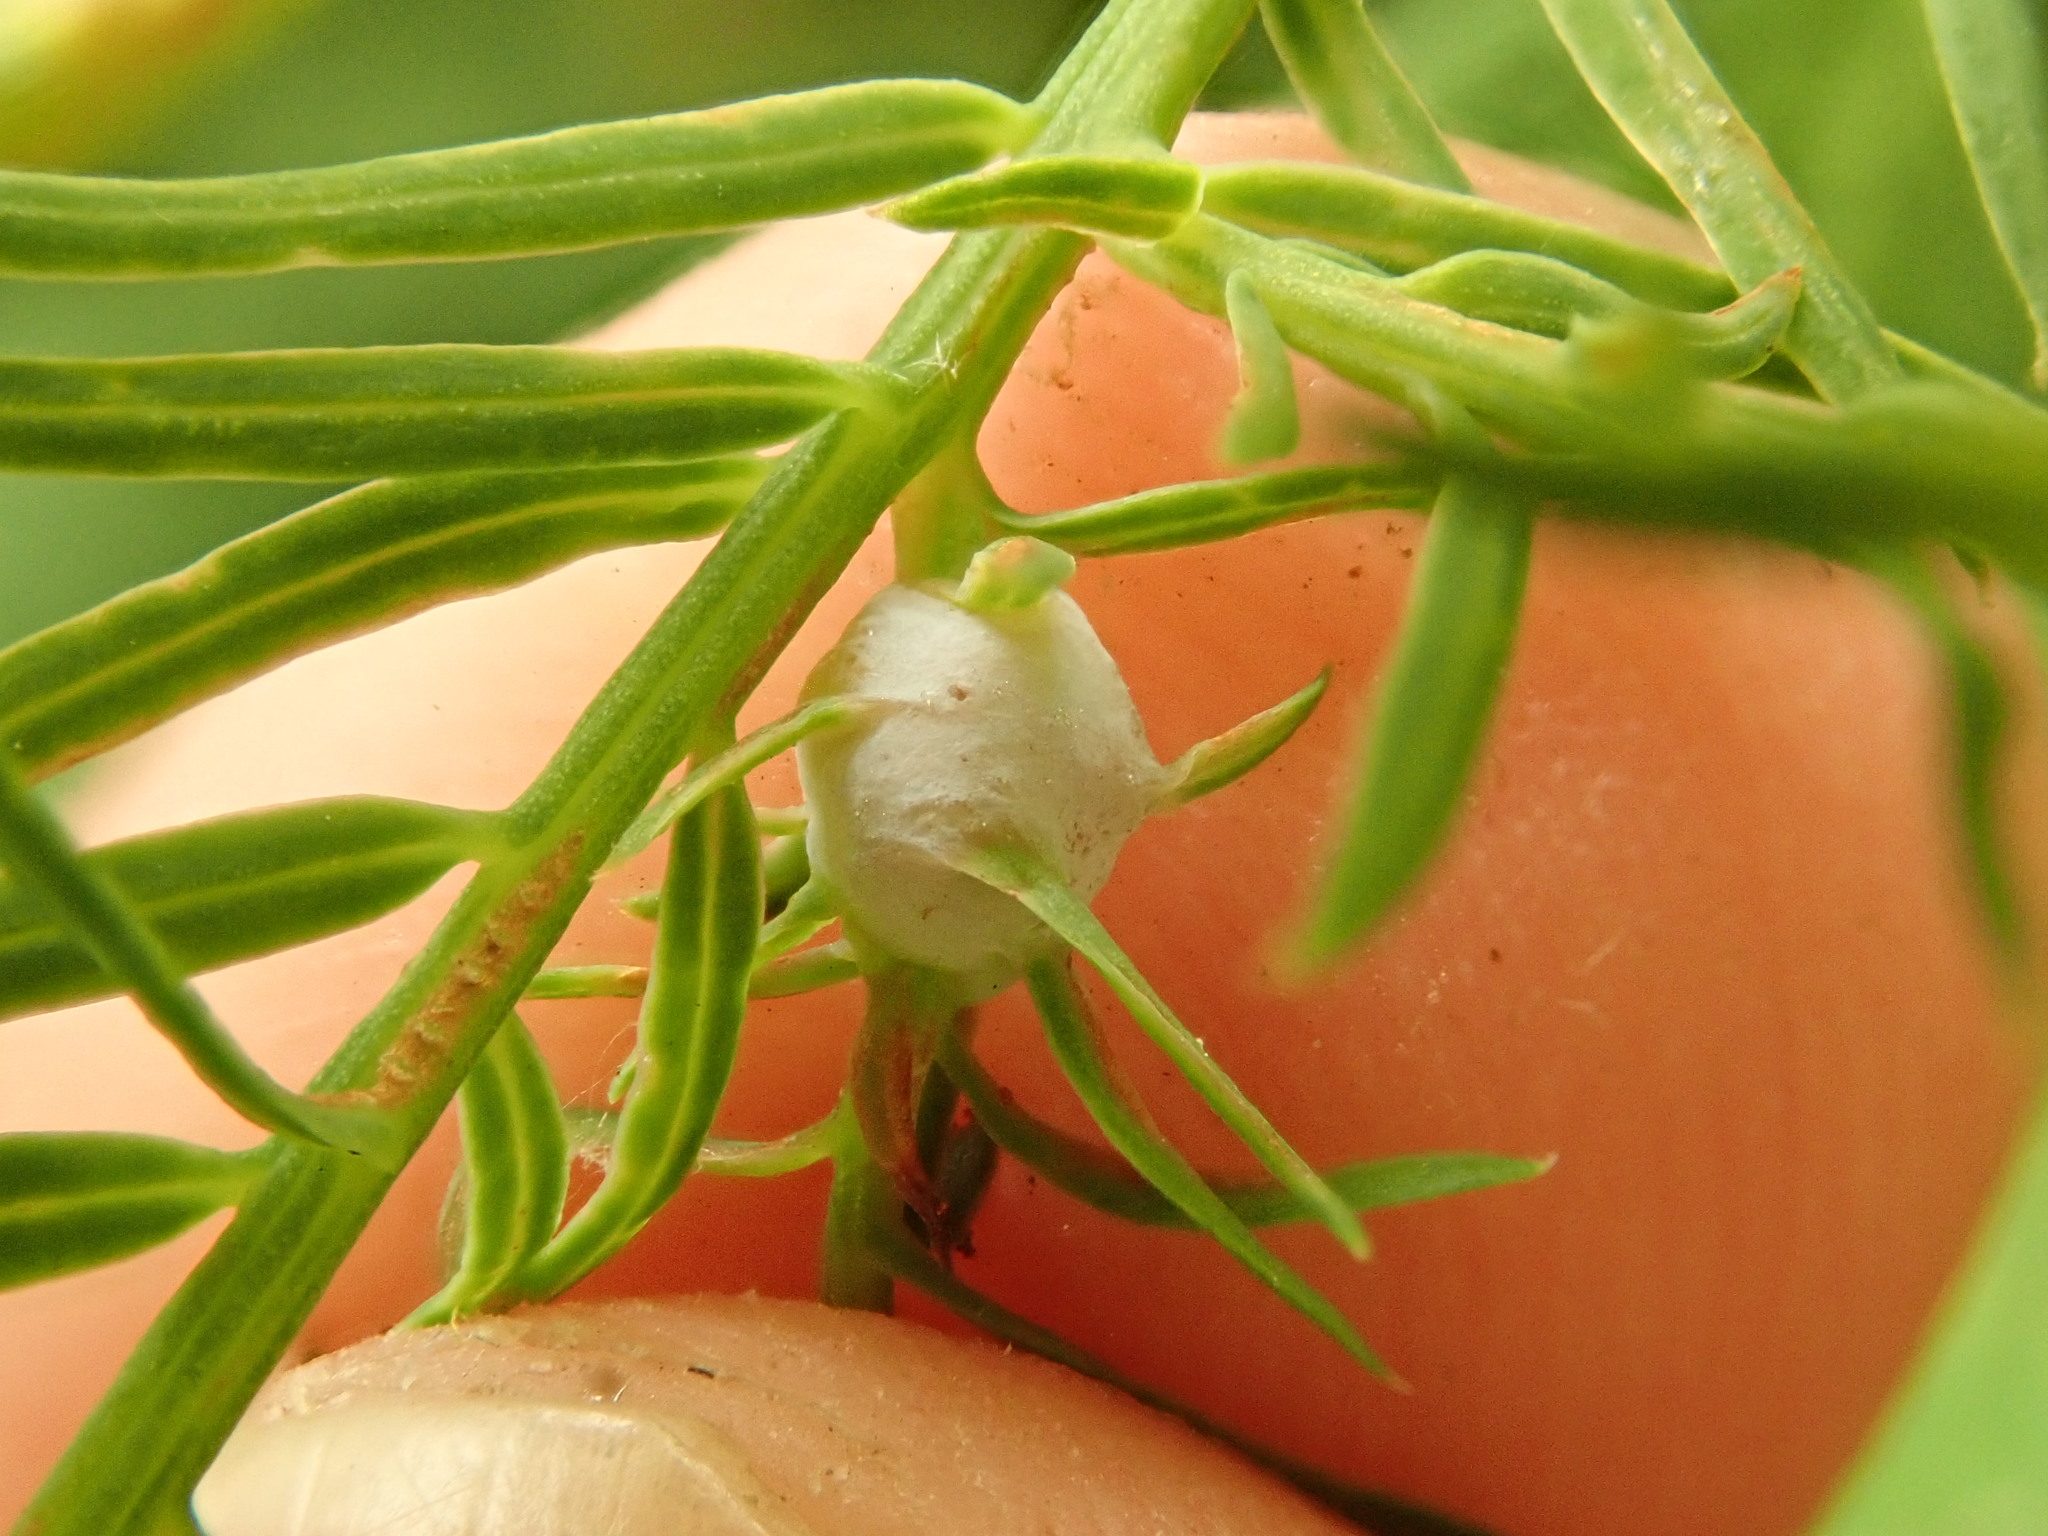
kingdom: Animalia
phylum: Arthropoda
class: Insecta
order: Diptera
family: Cecidomyiidae
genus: Taxodiomyia
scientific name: Taxodiomyia cupressiananassa
